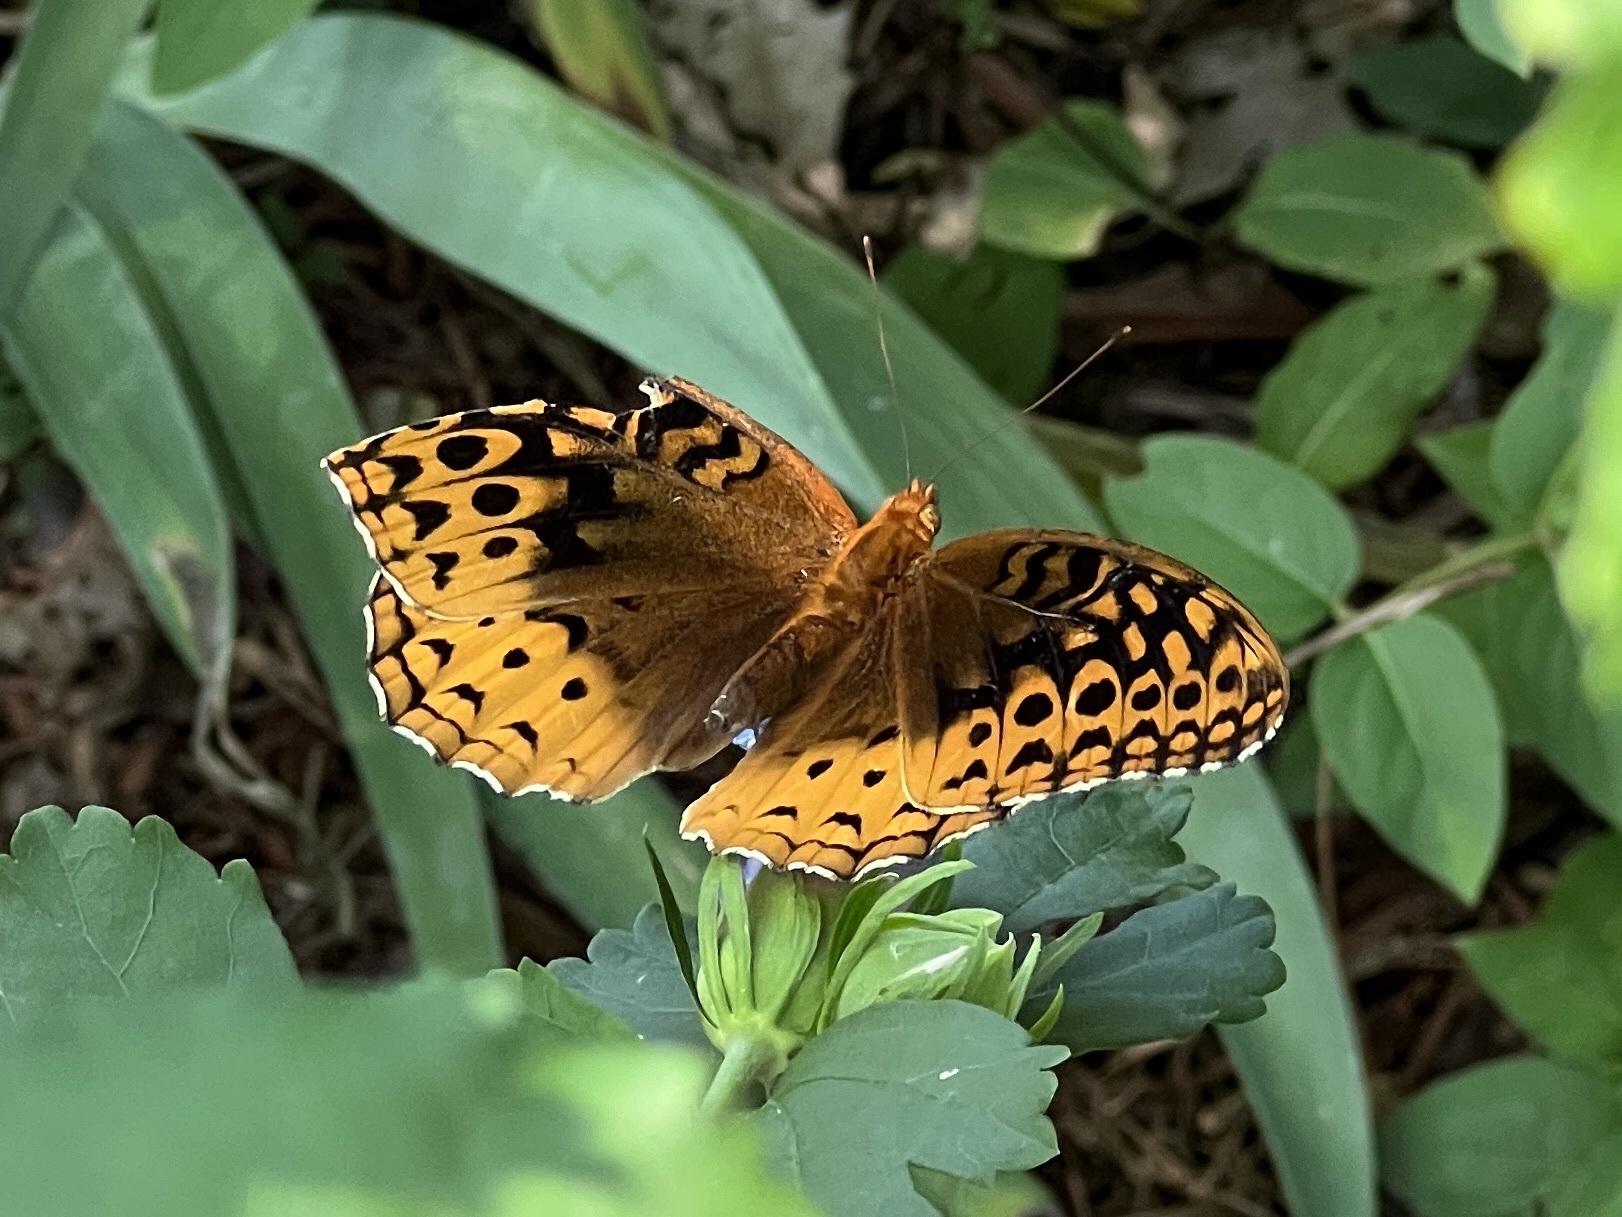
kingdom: Animalia
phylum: Arthropoda
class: Insecta
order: Lepidoptera
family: Nymphalidae
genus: Speyeria
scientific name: Speyeria cybele
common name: Great spangled fritillary
